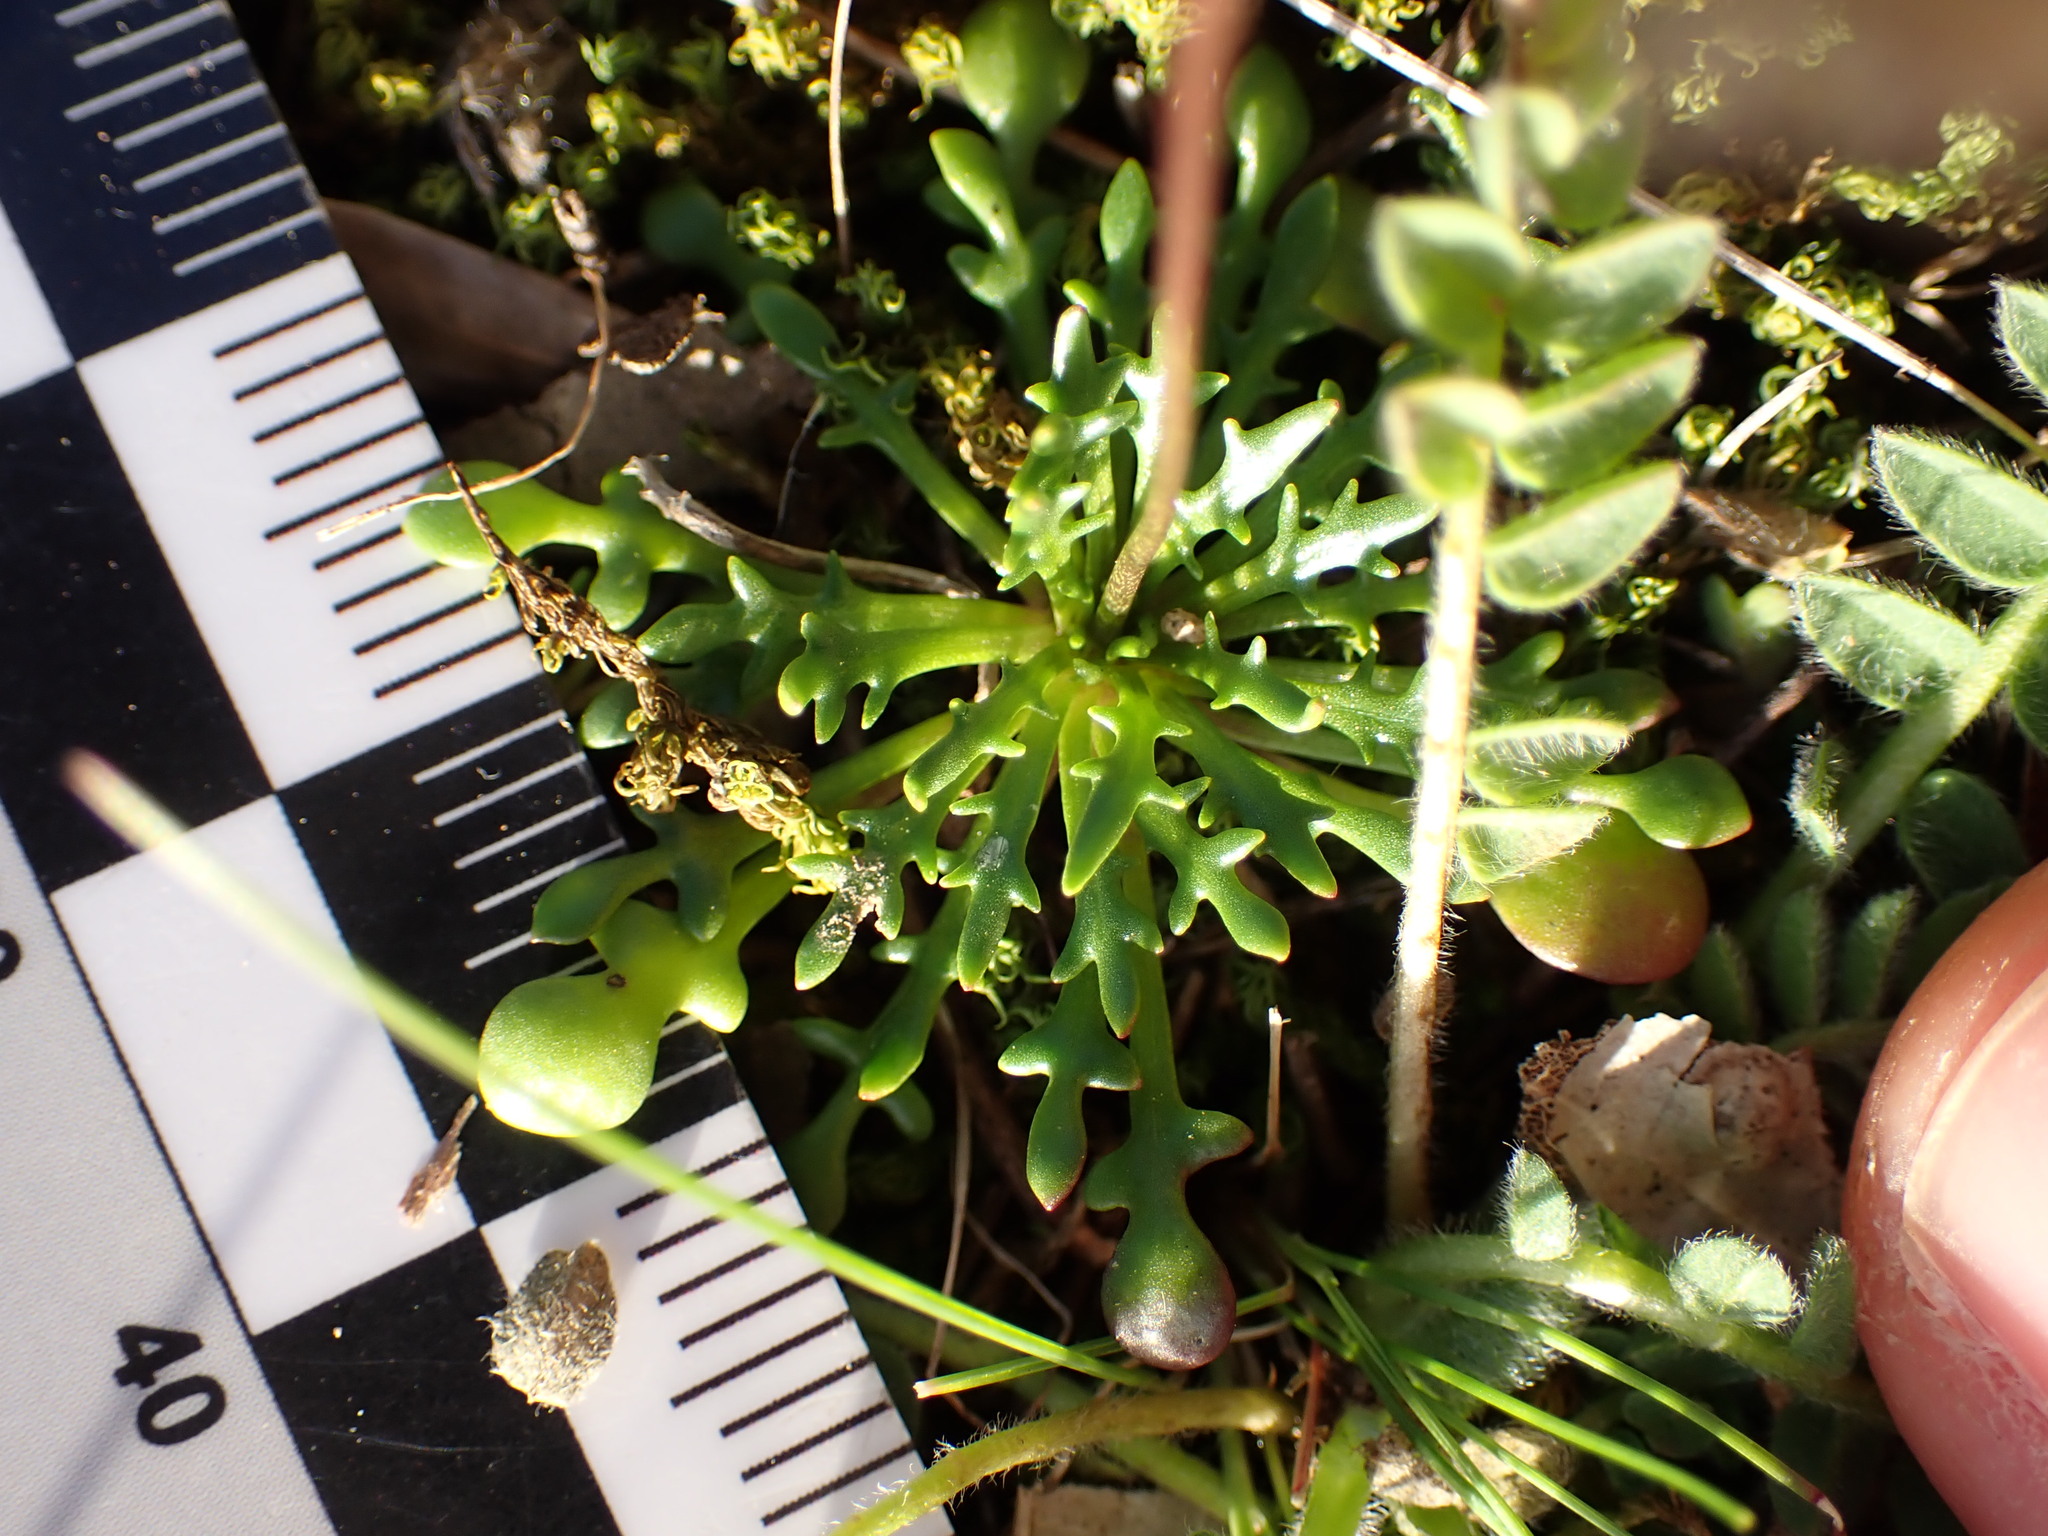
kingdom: Plantae
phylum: Tracheophyta
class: Magnoliopsida
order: Brassicales
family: Brassicaceae
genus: Teesdalia
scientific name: Teesdalia coronopifolia
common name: Lesser shepherdscress
